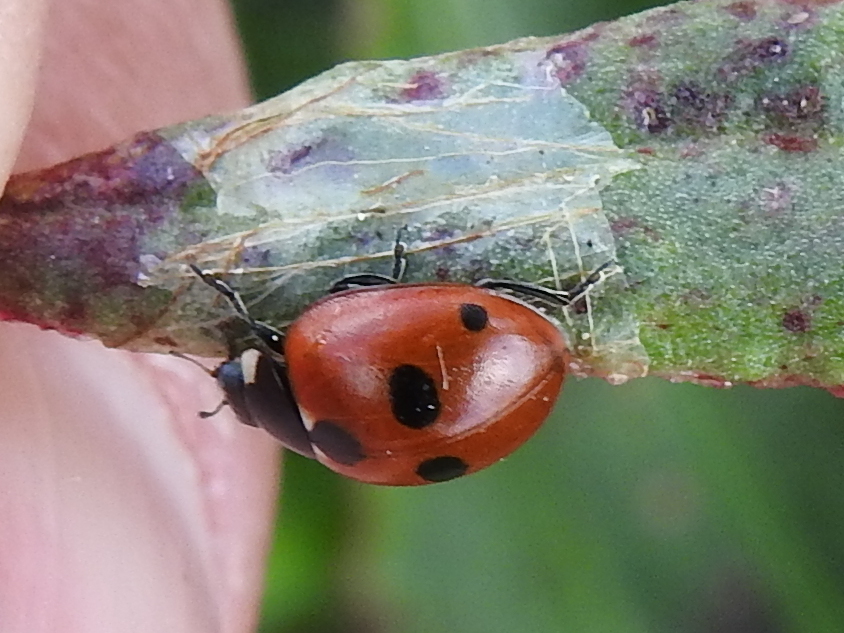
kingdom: Animalia
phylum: Arthropoda
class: Insecta
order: Coleoptera
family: Coccinellidae
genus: Coccinella
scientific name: Coccinella quinquepunctata
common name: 5-spot ladybird
